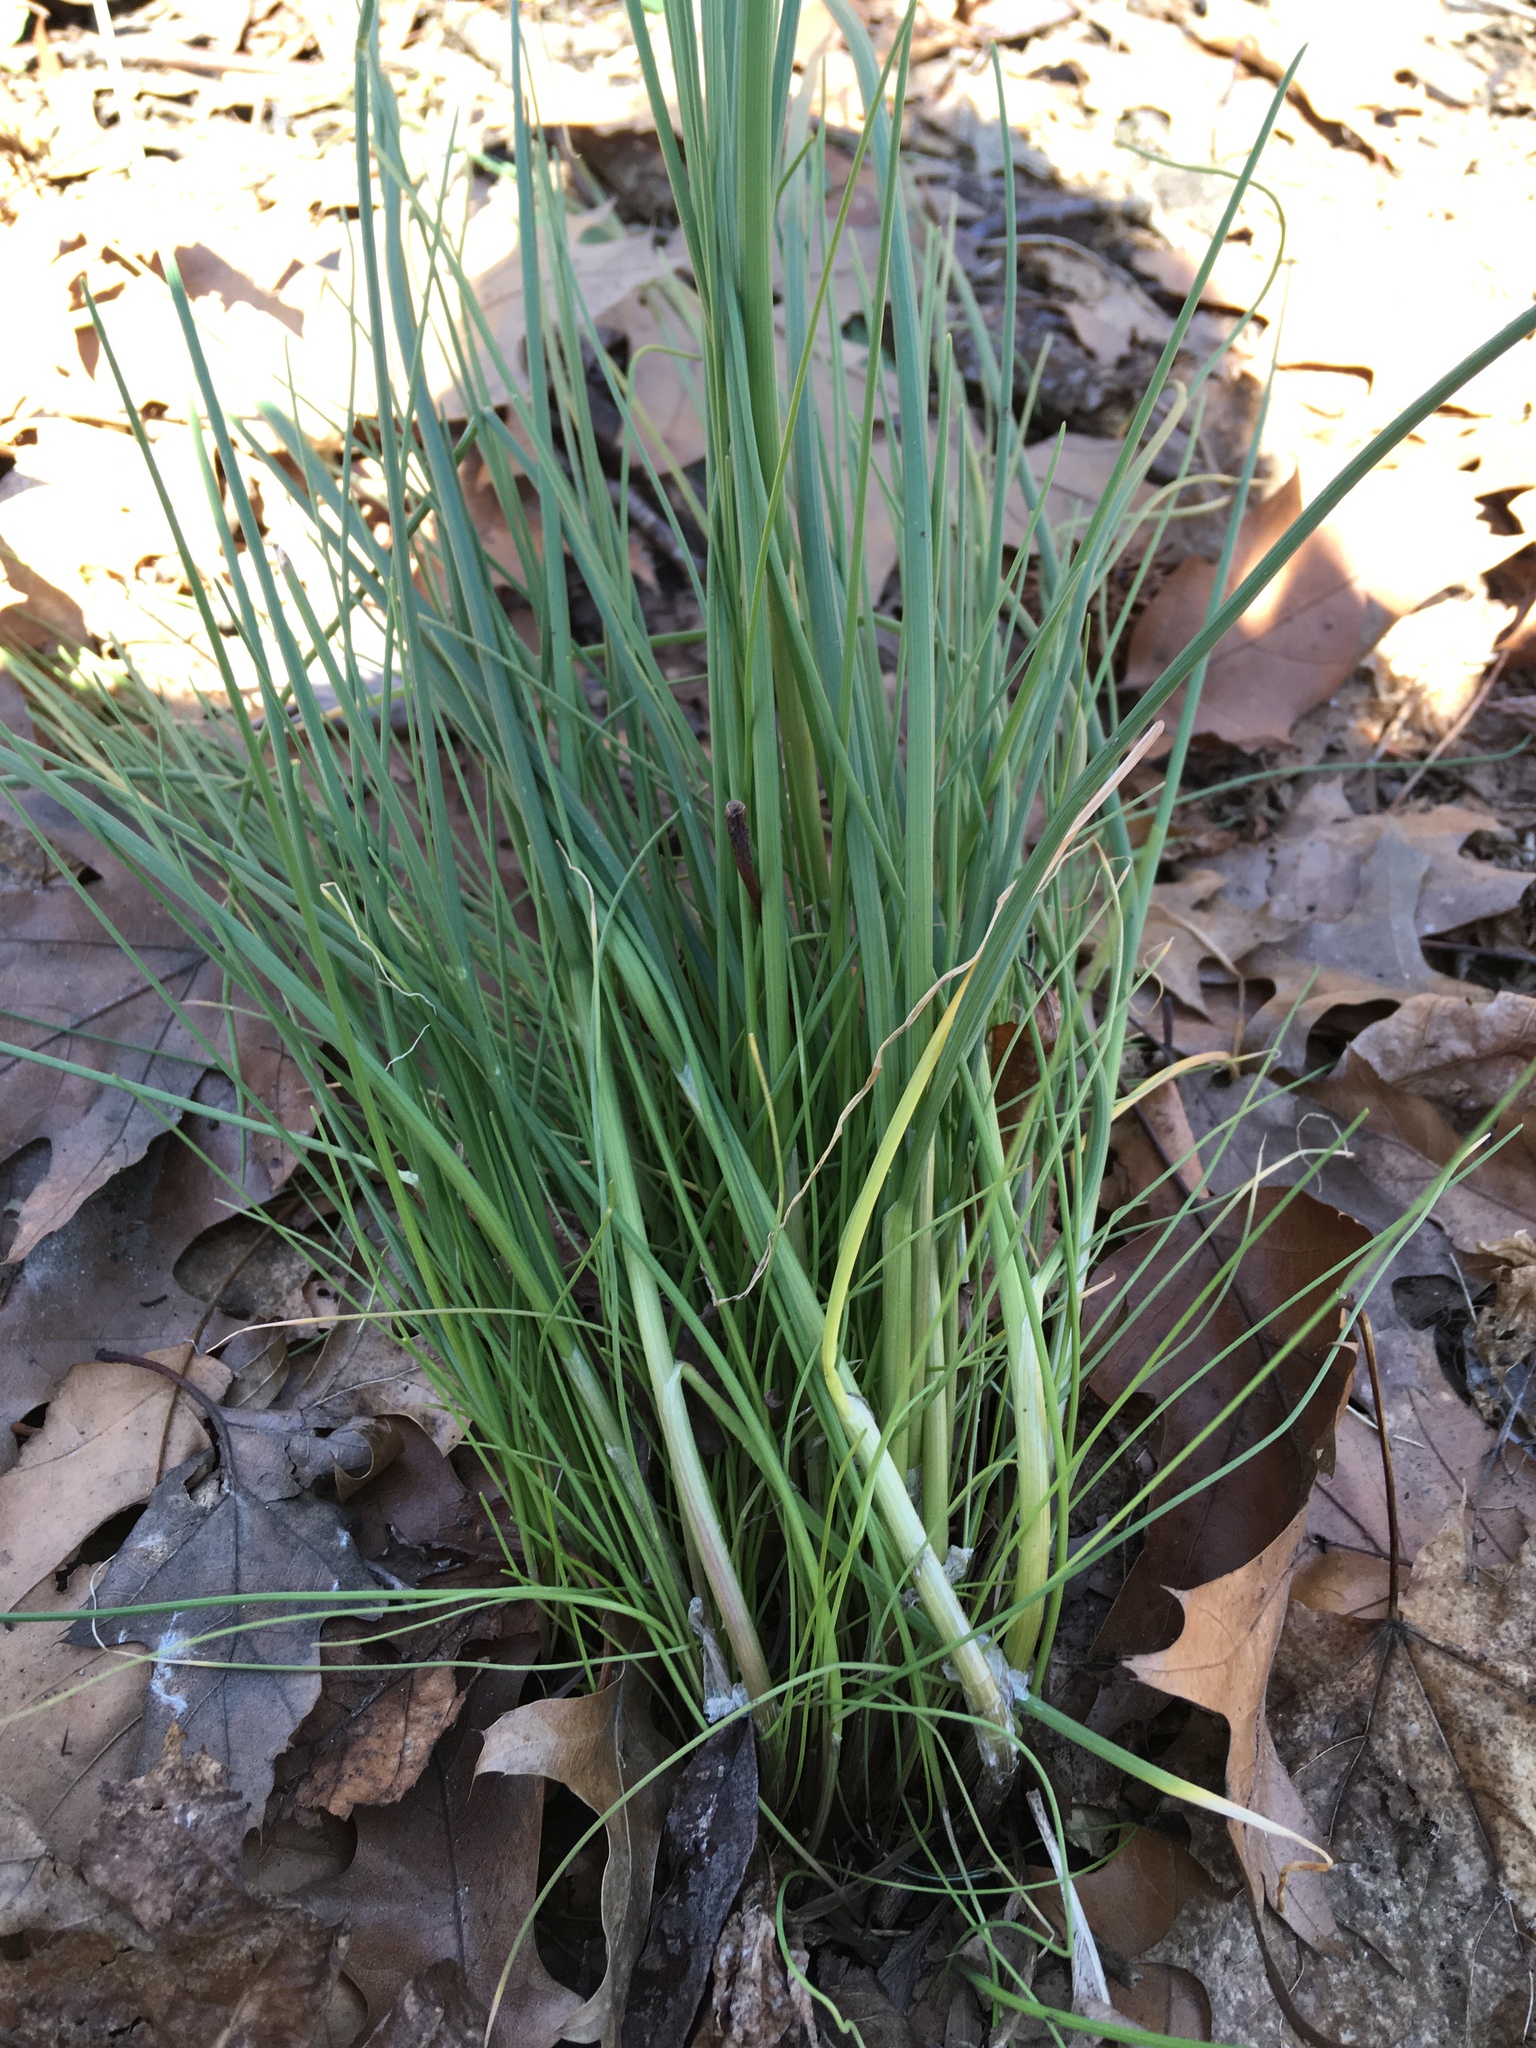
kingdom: Plantae
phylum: Tracheophyta
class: Liliopsida
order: Asparagales
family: Amaryllidaceae
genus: Allium
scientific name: Allium vineale
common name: Crow garlic
